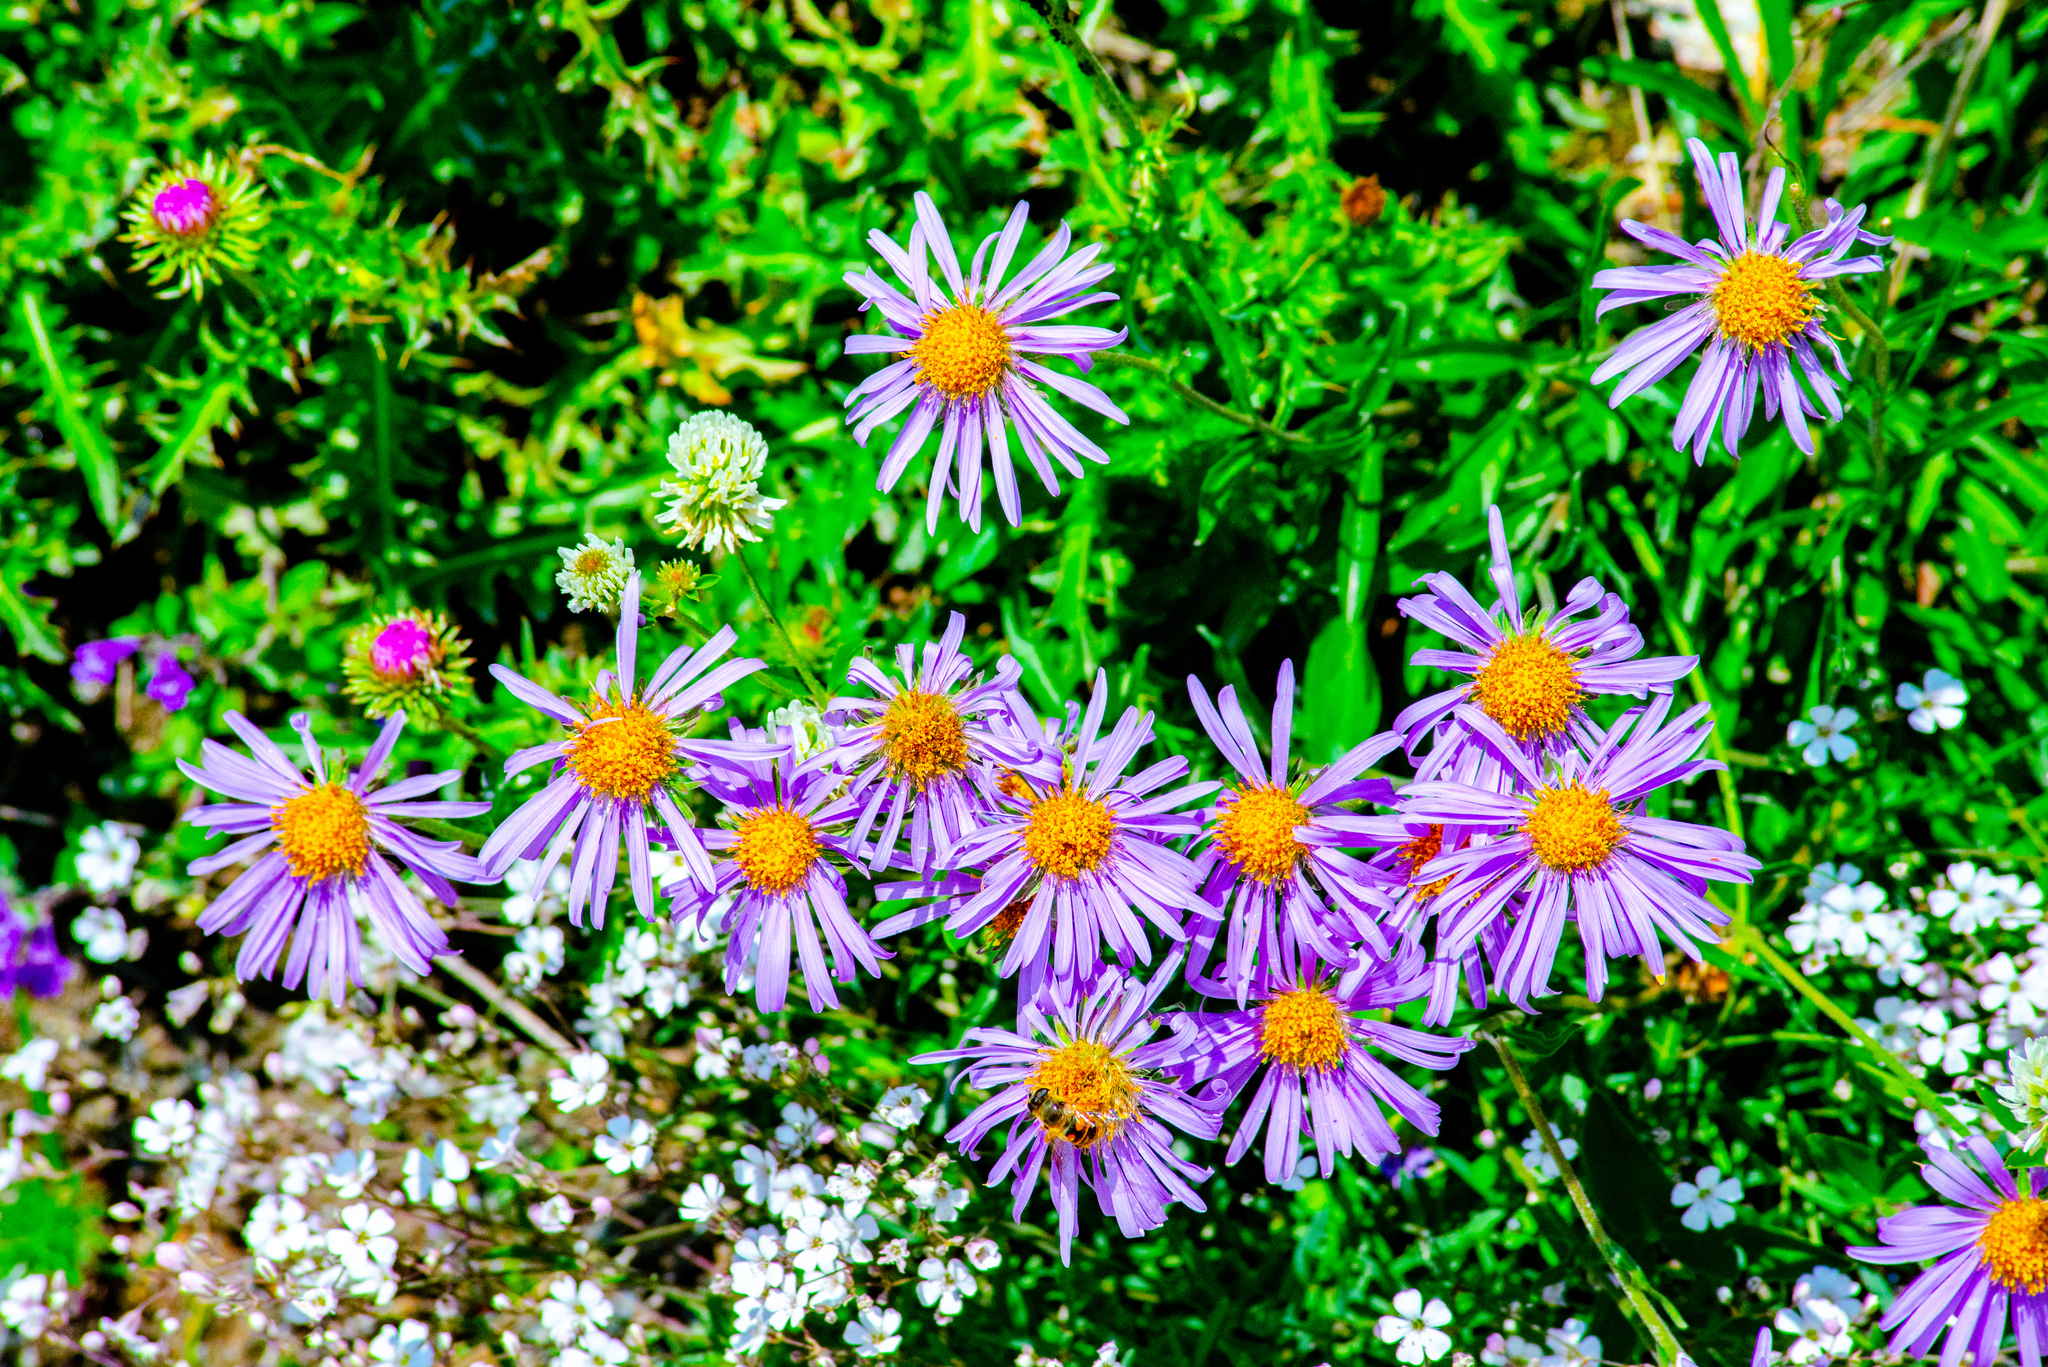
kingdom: Plantae
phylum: Tracheophyta
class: Magnoliopsida
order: Asterales
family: Asteraceae
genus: Aster
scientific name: Aster alpinus
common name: Alpine aster
